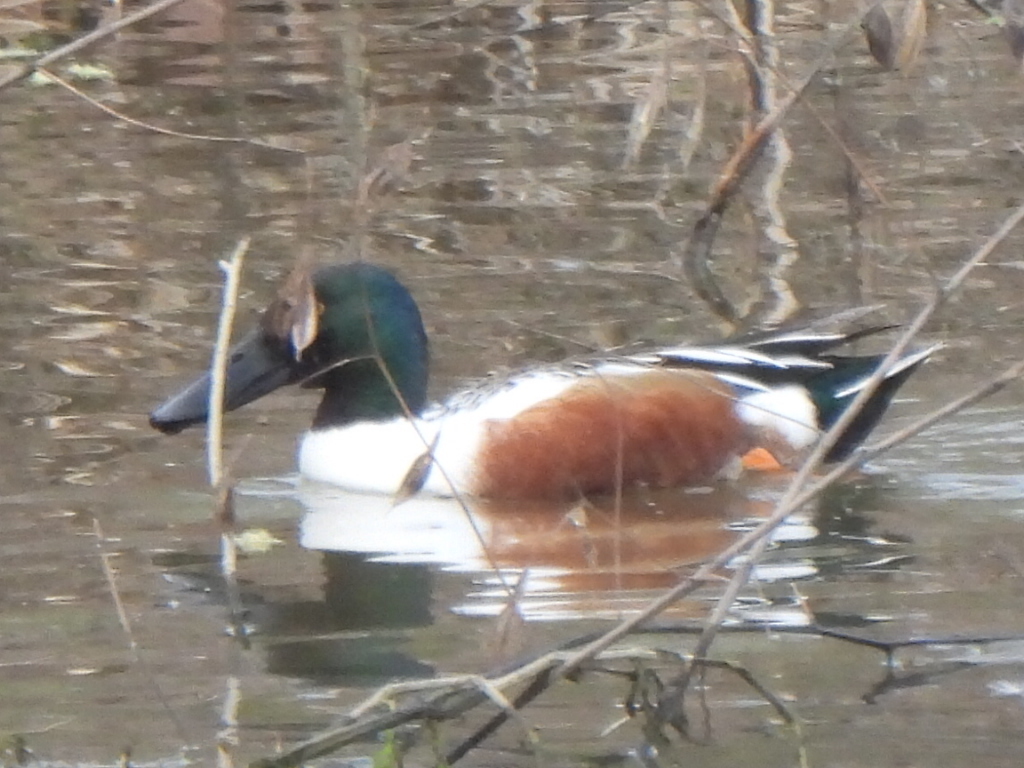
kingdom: Animalia
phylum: Chordata
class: Aves
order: Anseriformes
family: Anatidae
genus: Spatula
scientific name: Spatula clypeata
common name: Northern shoveler
